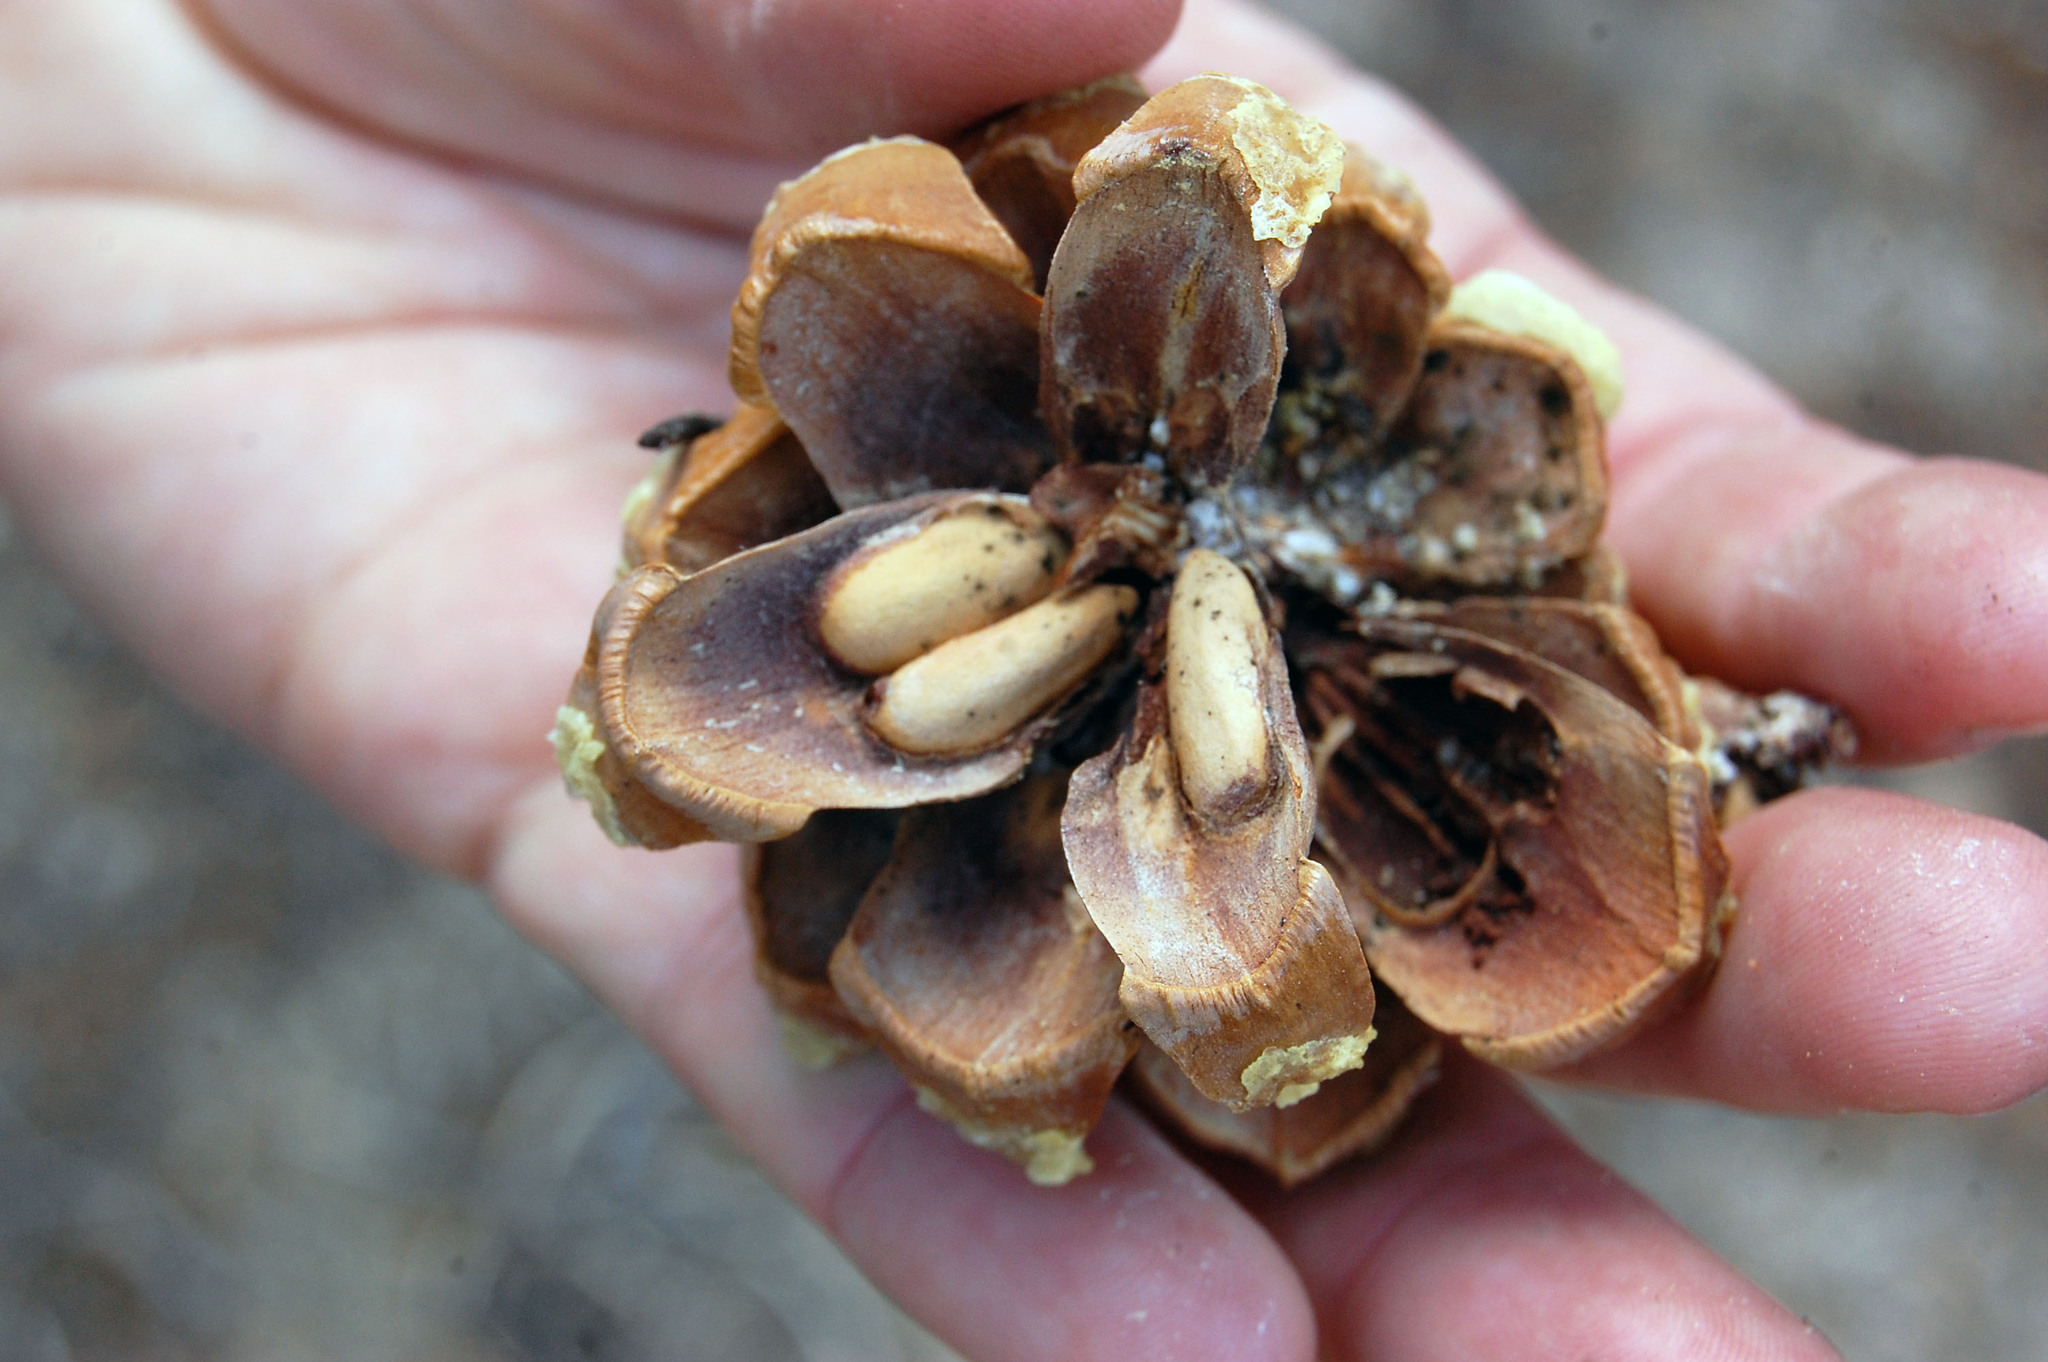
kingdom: Plantae
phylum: Tracheophyta
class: Pinopsida
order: Pinales
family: Pinaceae
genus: Pinus
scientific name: Pinus monophylla
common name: One-leaved nut pine
